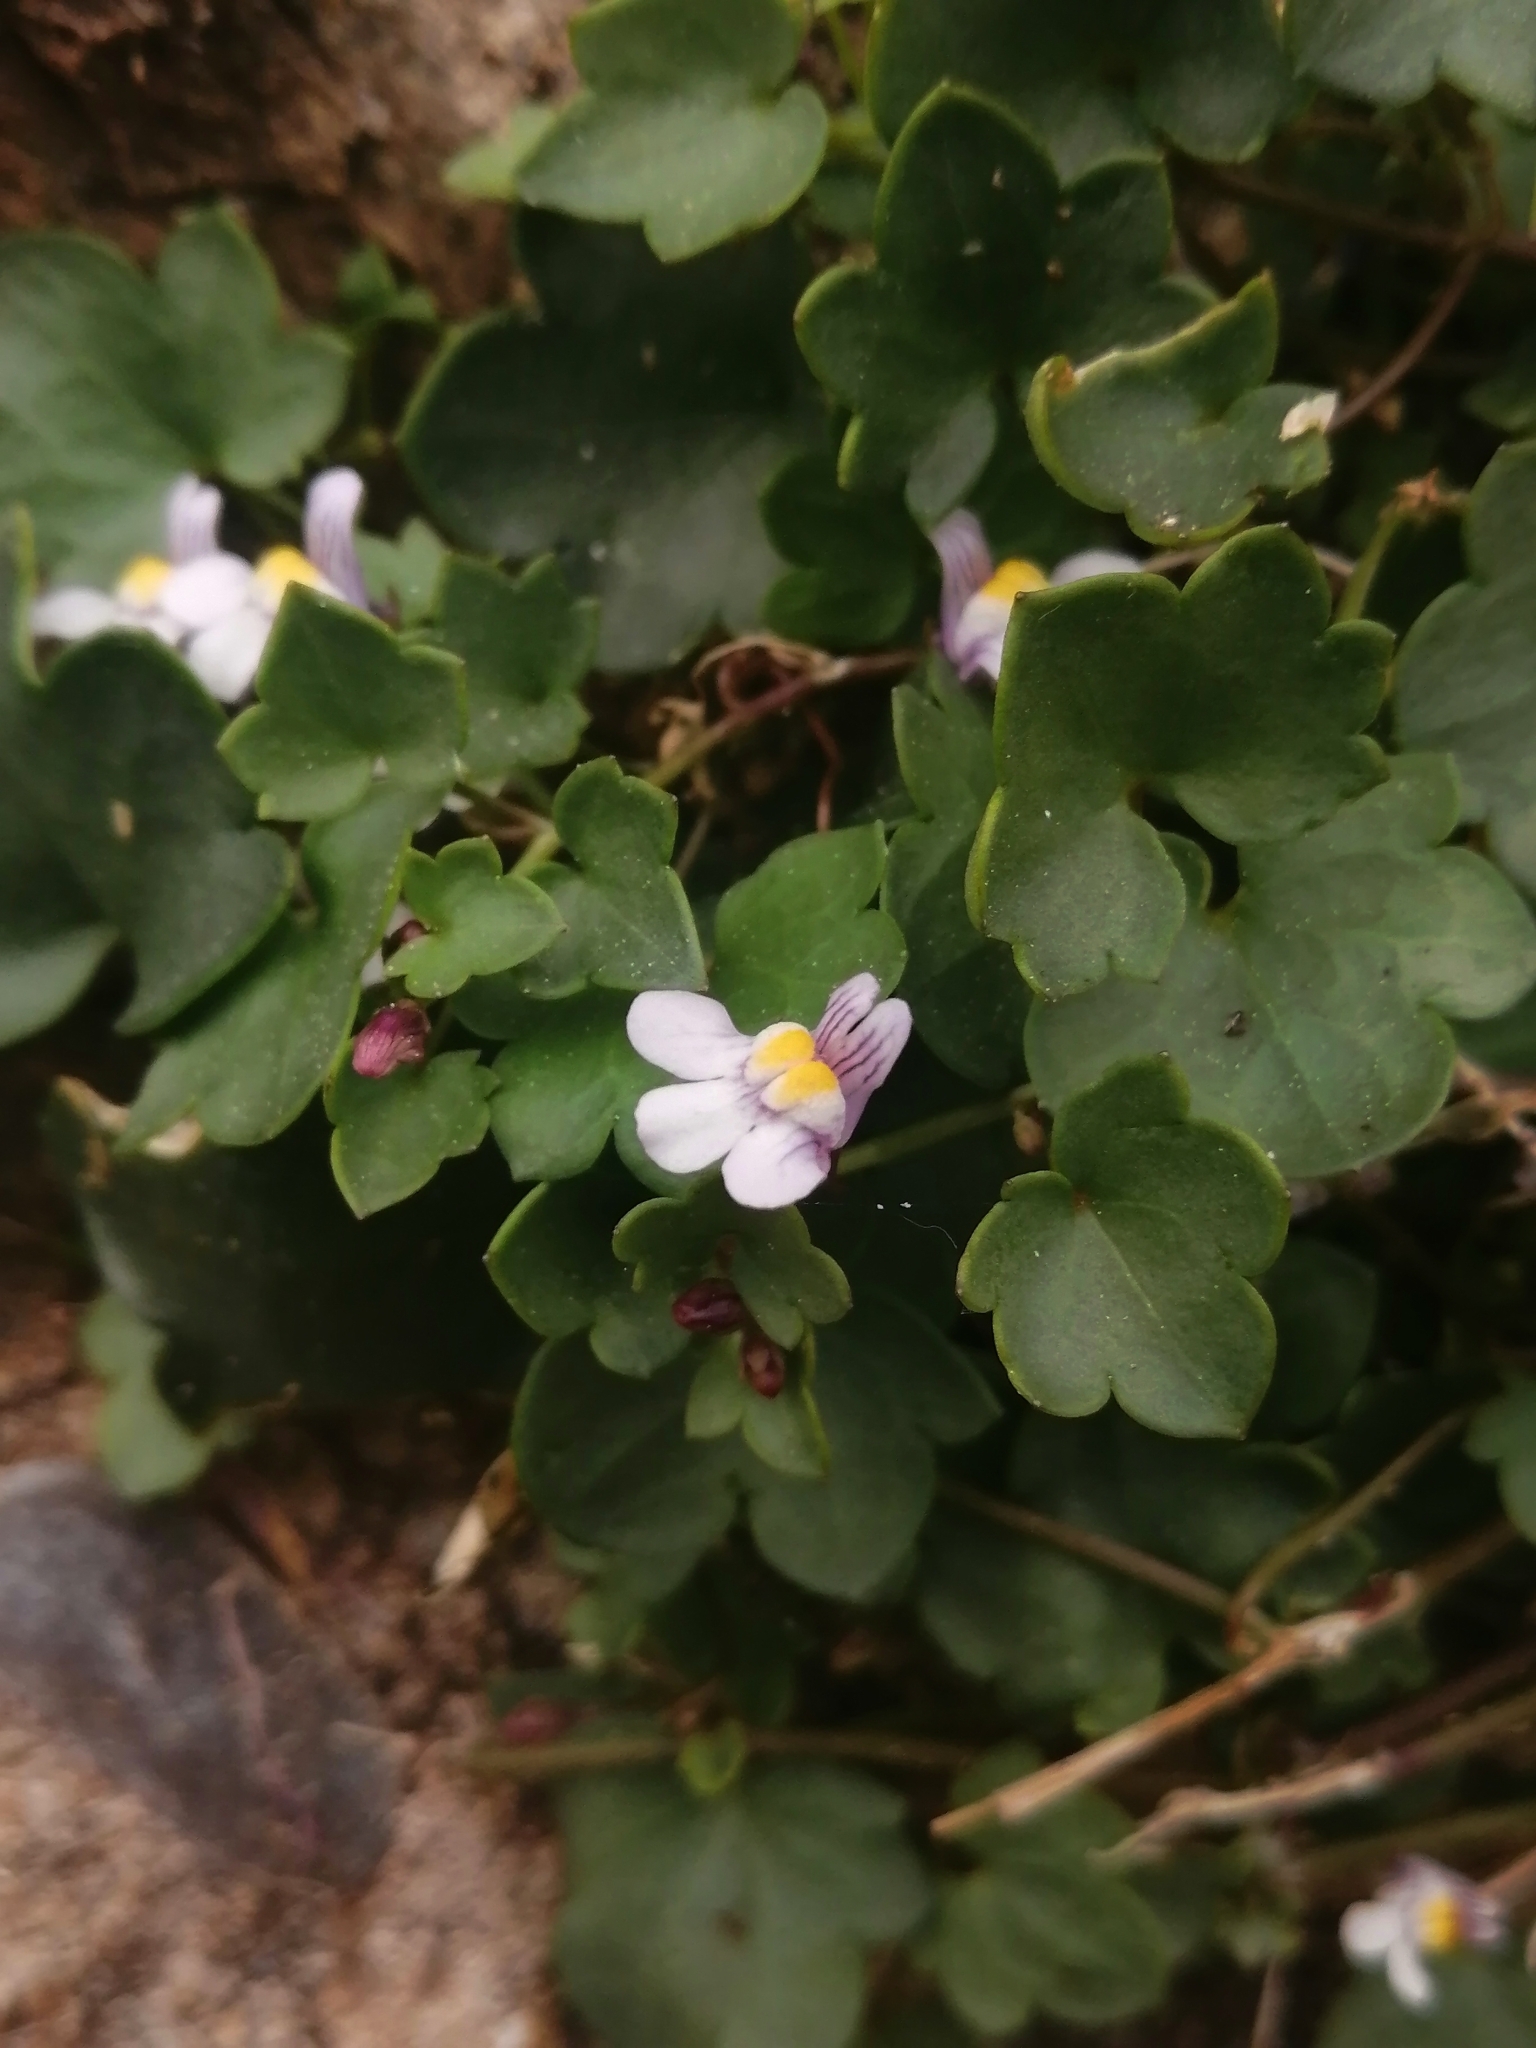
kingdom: Plantae
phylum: Tracheophyta
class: Magnoliopsida
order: Lamiales
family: Plantaginaceae
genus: Cymbalaria
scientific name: Cymbalaria muralis
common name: Ivy-leaved toadflax
